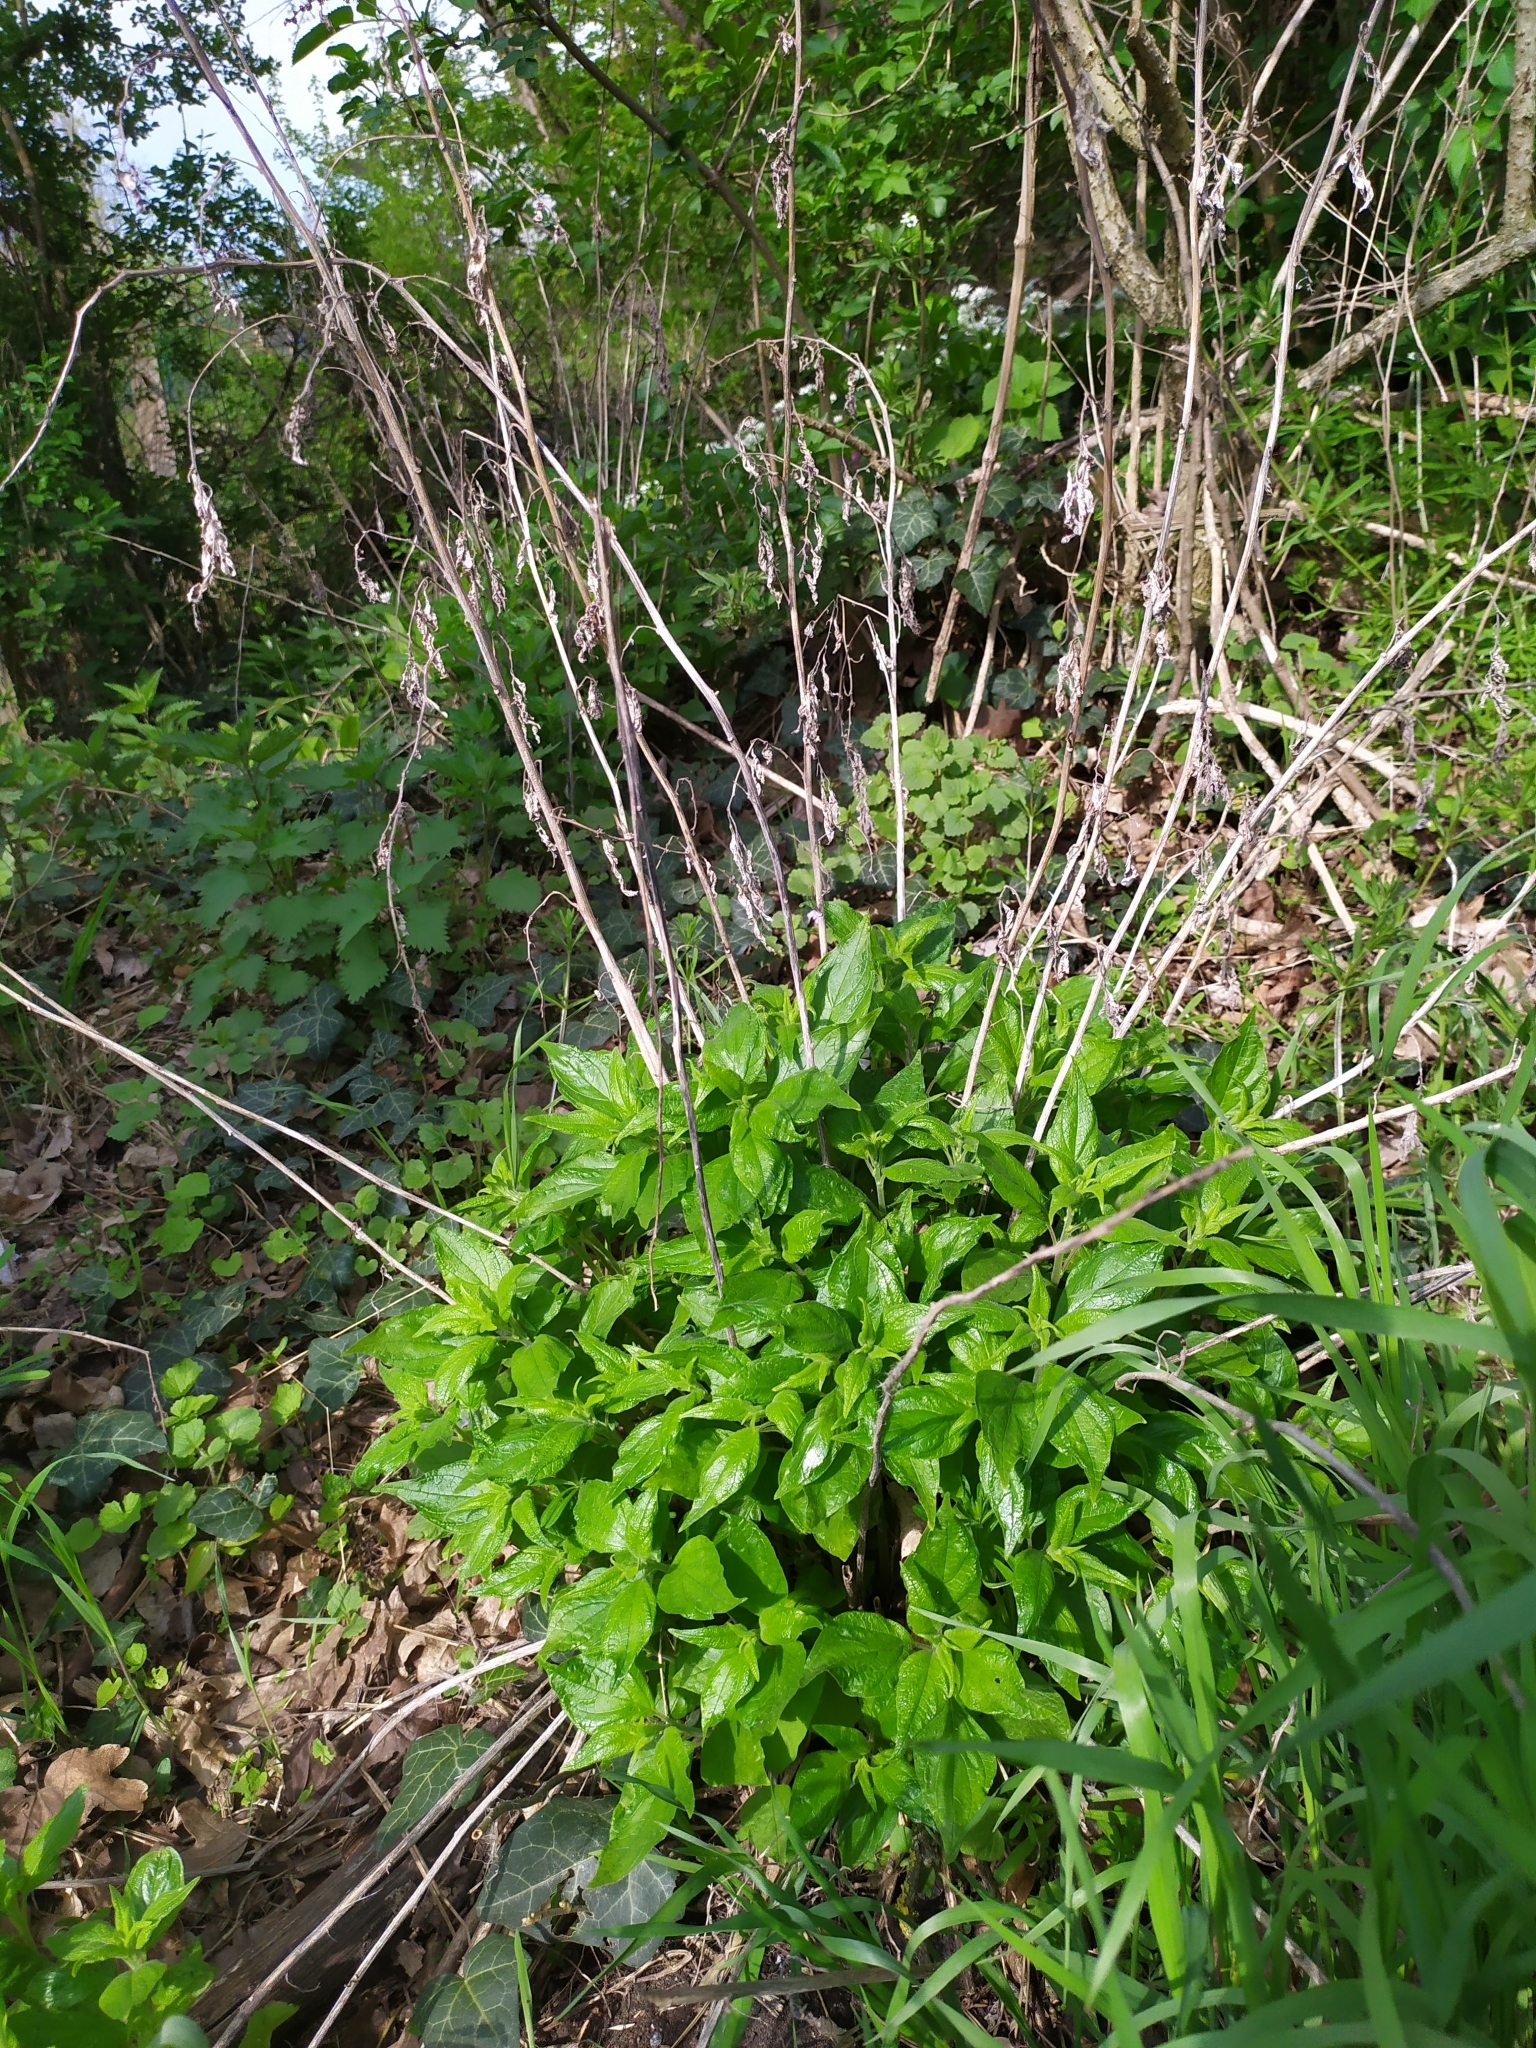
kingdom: Plantae
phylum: Tracheophyta
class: Magnoliopsida
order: Rosales
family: Urticaceae
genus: Parietaria
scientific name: Parietaria officinalis
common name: Eastern pellitory-of-the-wall
